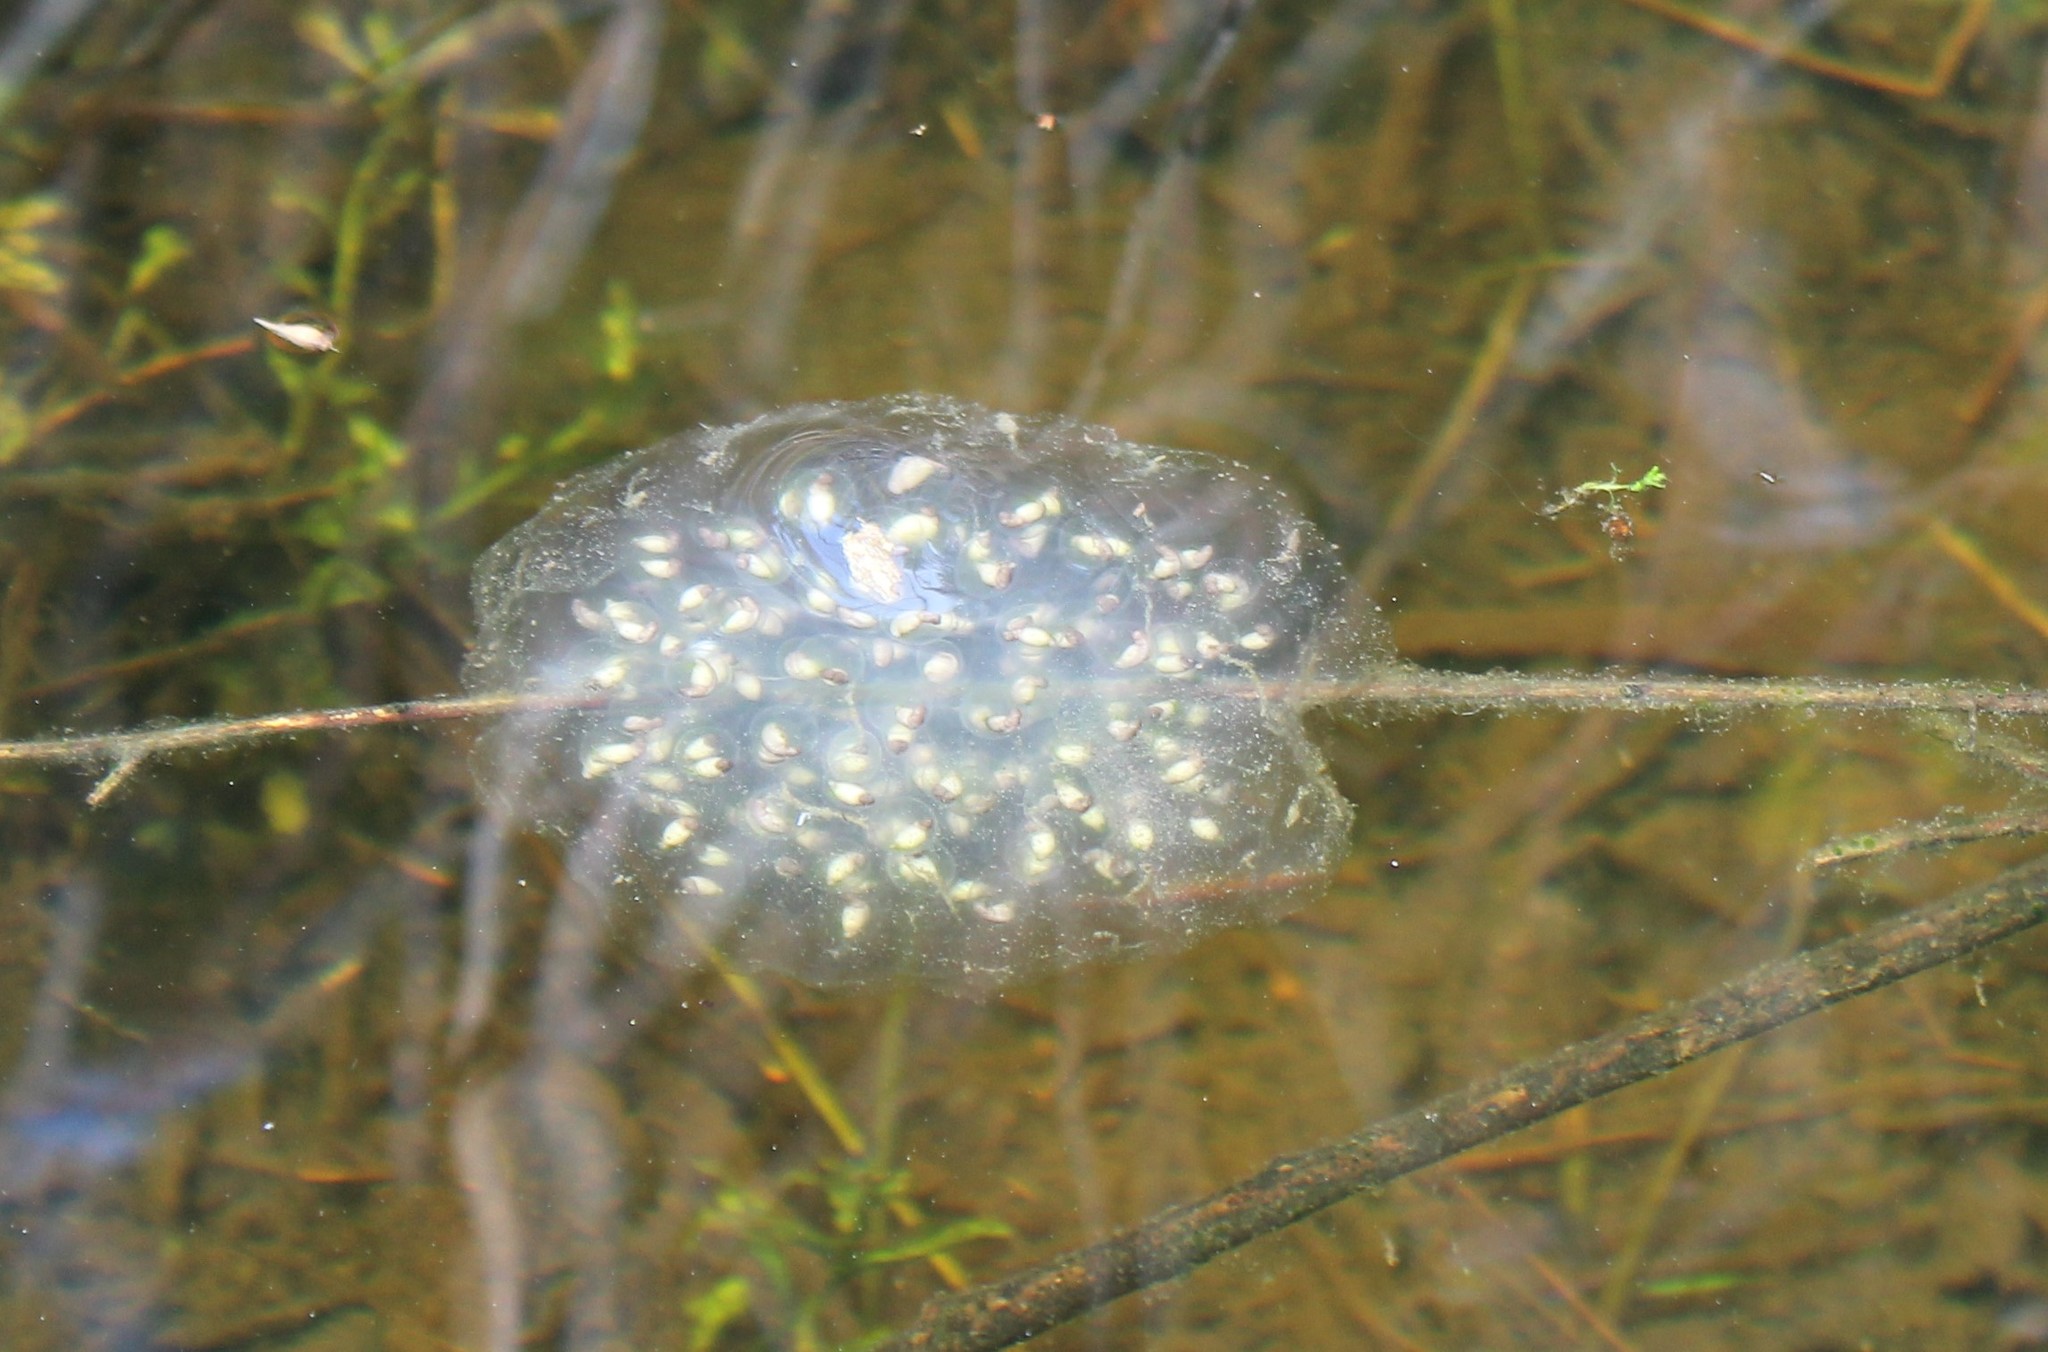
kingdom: Animalia
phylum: Chordata
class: Amphibia
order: Caudata
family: Ambystomatidae
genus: Ambystoma
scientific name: Ambystoma gracile
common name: Northwestern salamander
